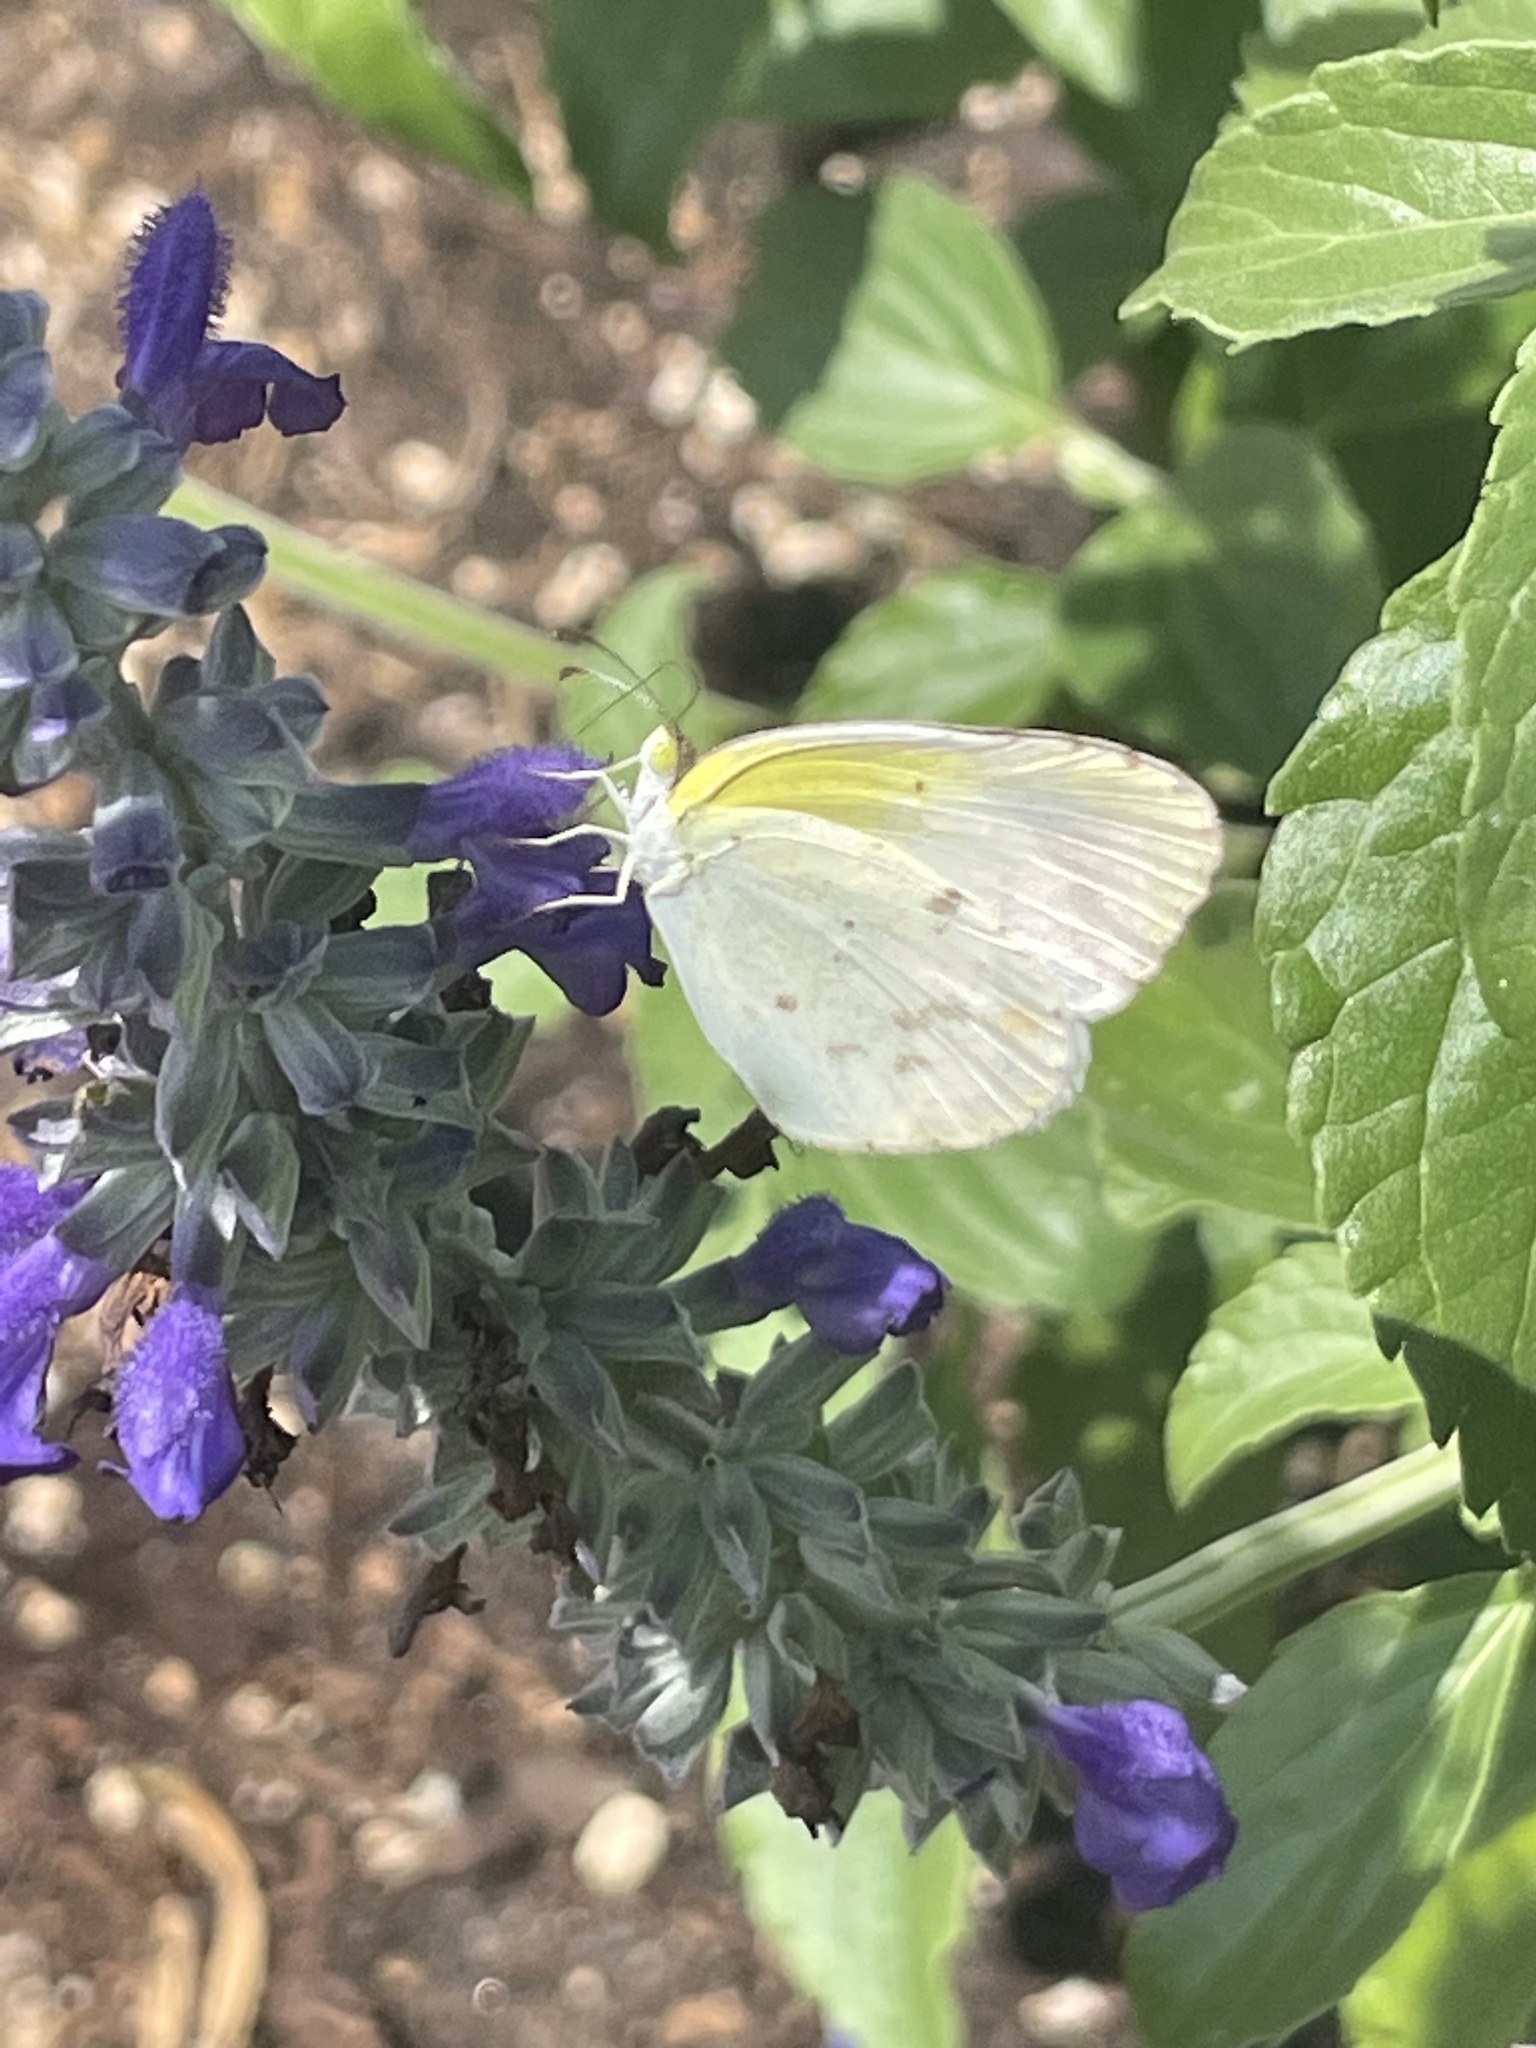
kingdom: Animalia
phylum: Arthropoda
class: Insecta
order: Lepidoptera
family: Pieridae
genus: Pyrisitia
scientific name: Pyrisitia lisa
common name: Little yellow
